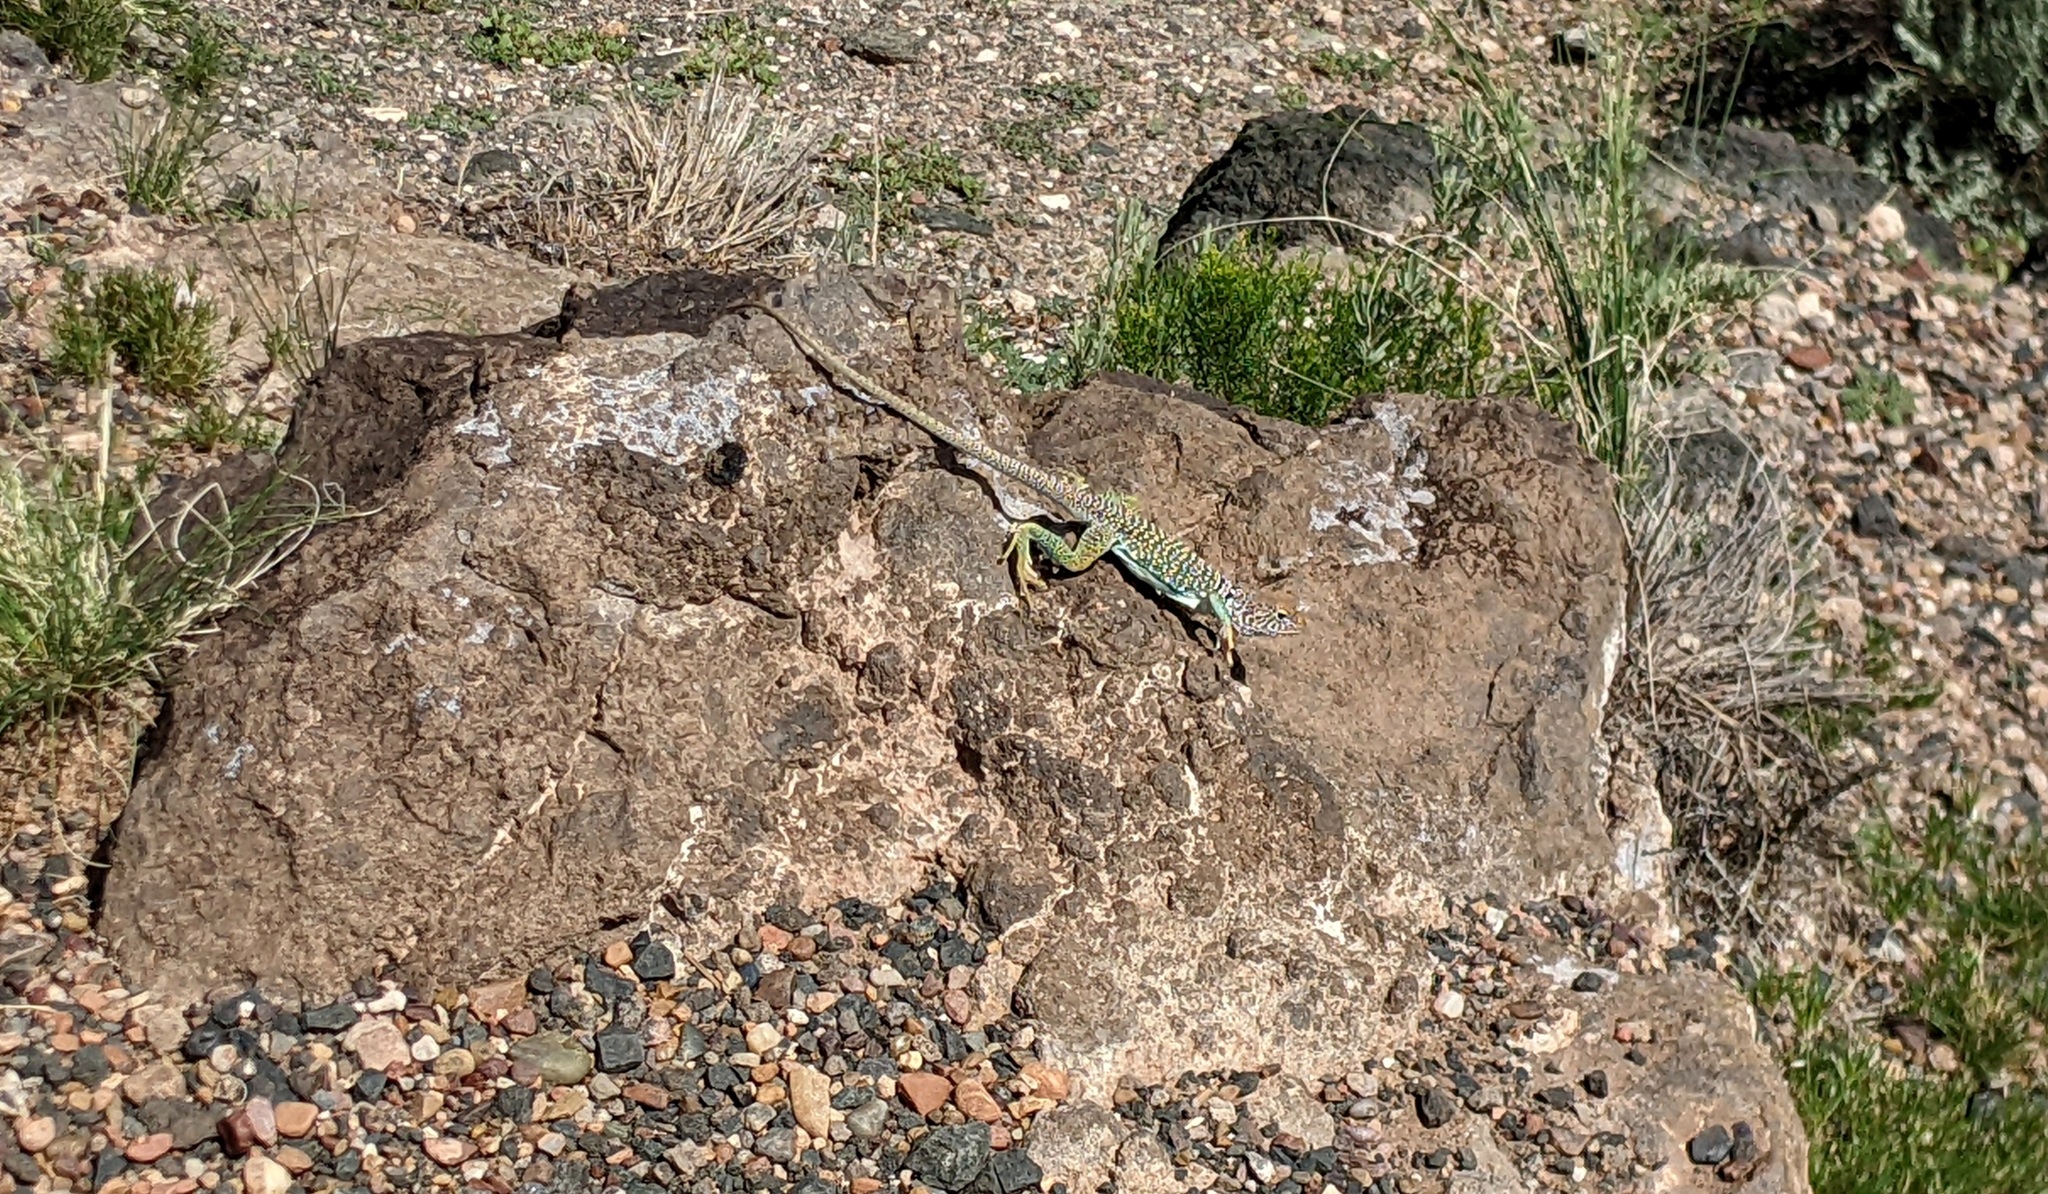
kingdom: Animalia
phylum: Chordata
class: Squamata
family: Crotaphytidae
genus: Crotaphytus
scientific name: Crotaphytus collaris
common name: Collared lizard
